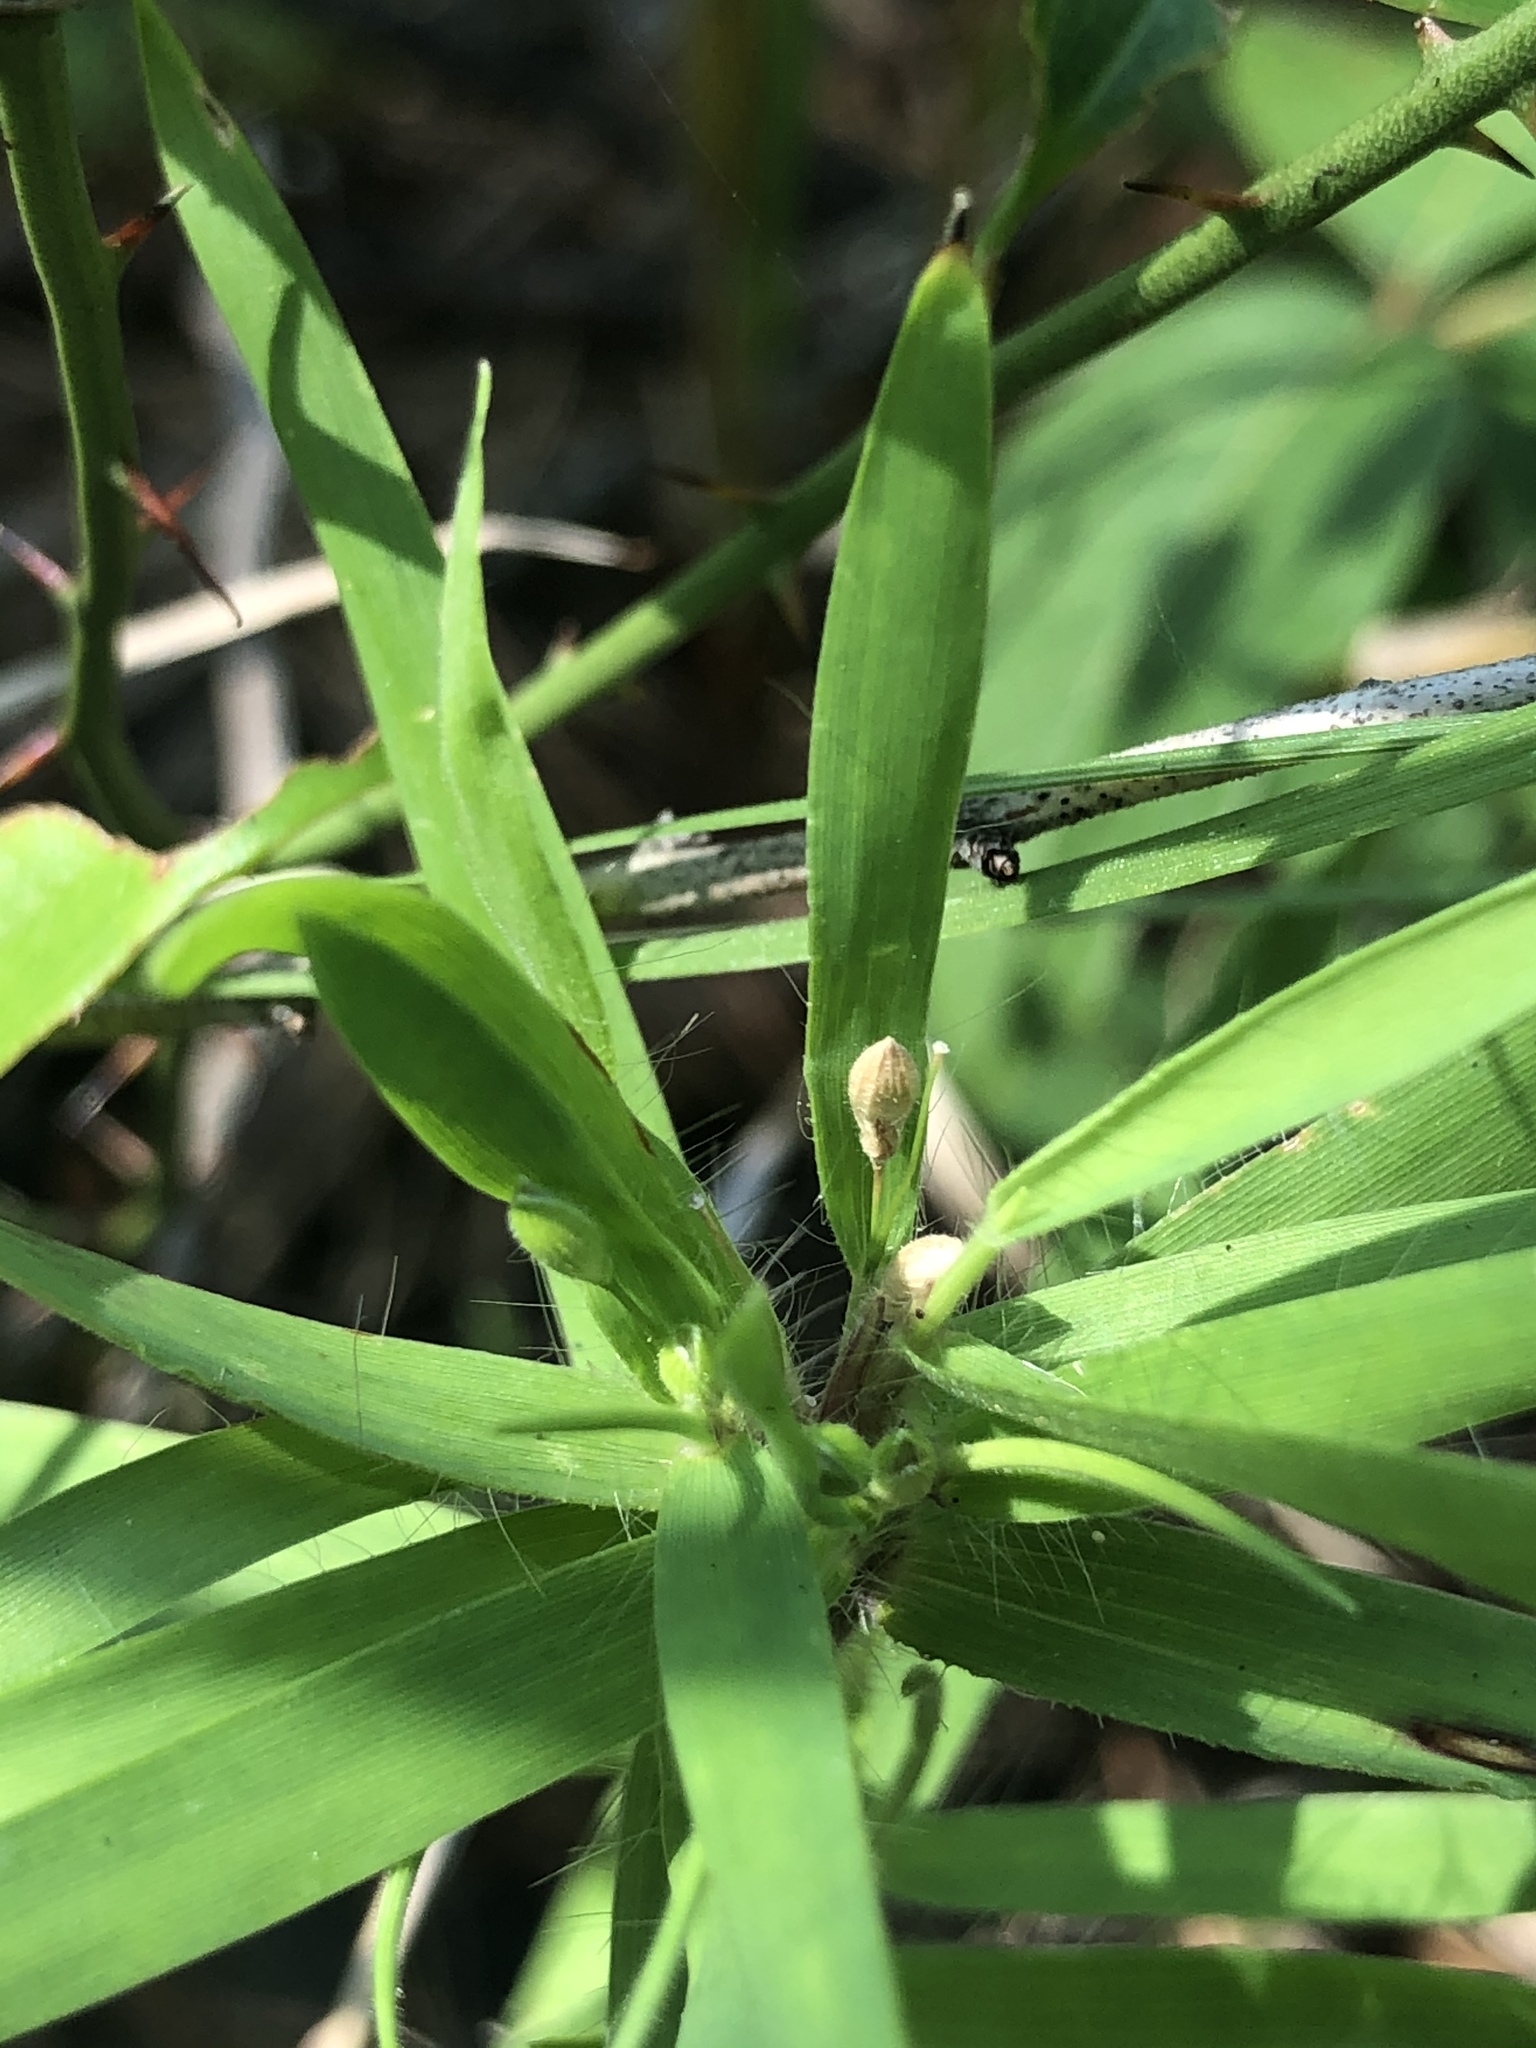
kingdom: Plantae
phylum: Tracheophyta
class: Liliopsida
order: Poales
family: Poaceae
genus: Dichanthelium
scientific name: Dichanthelium oligosanthes
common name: Few-anther obscuregrass
